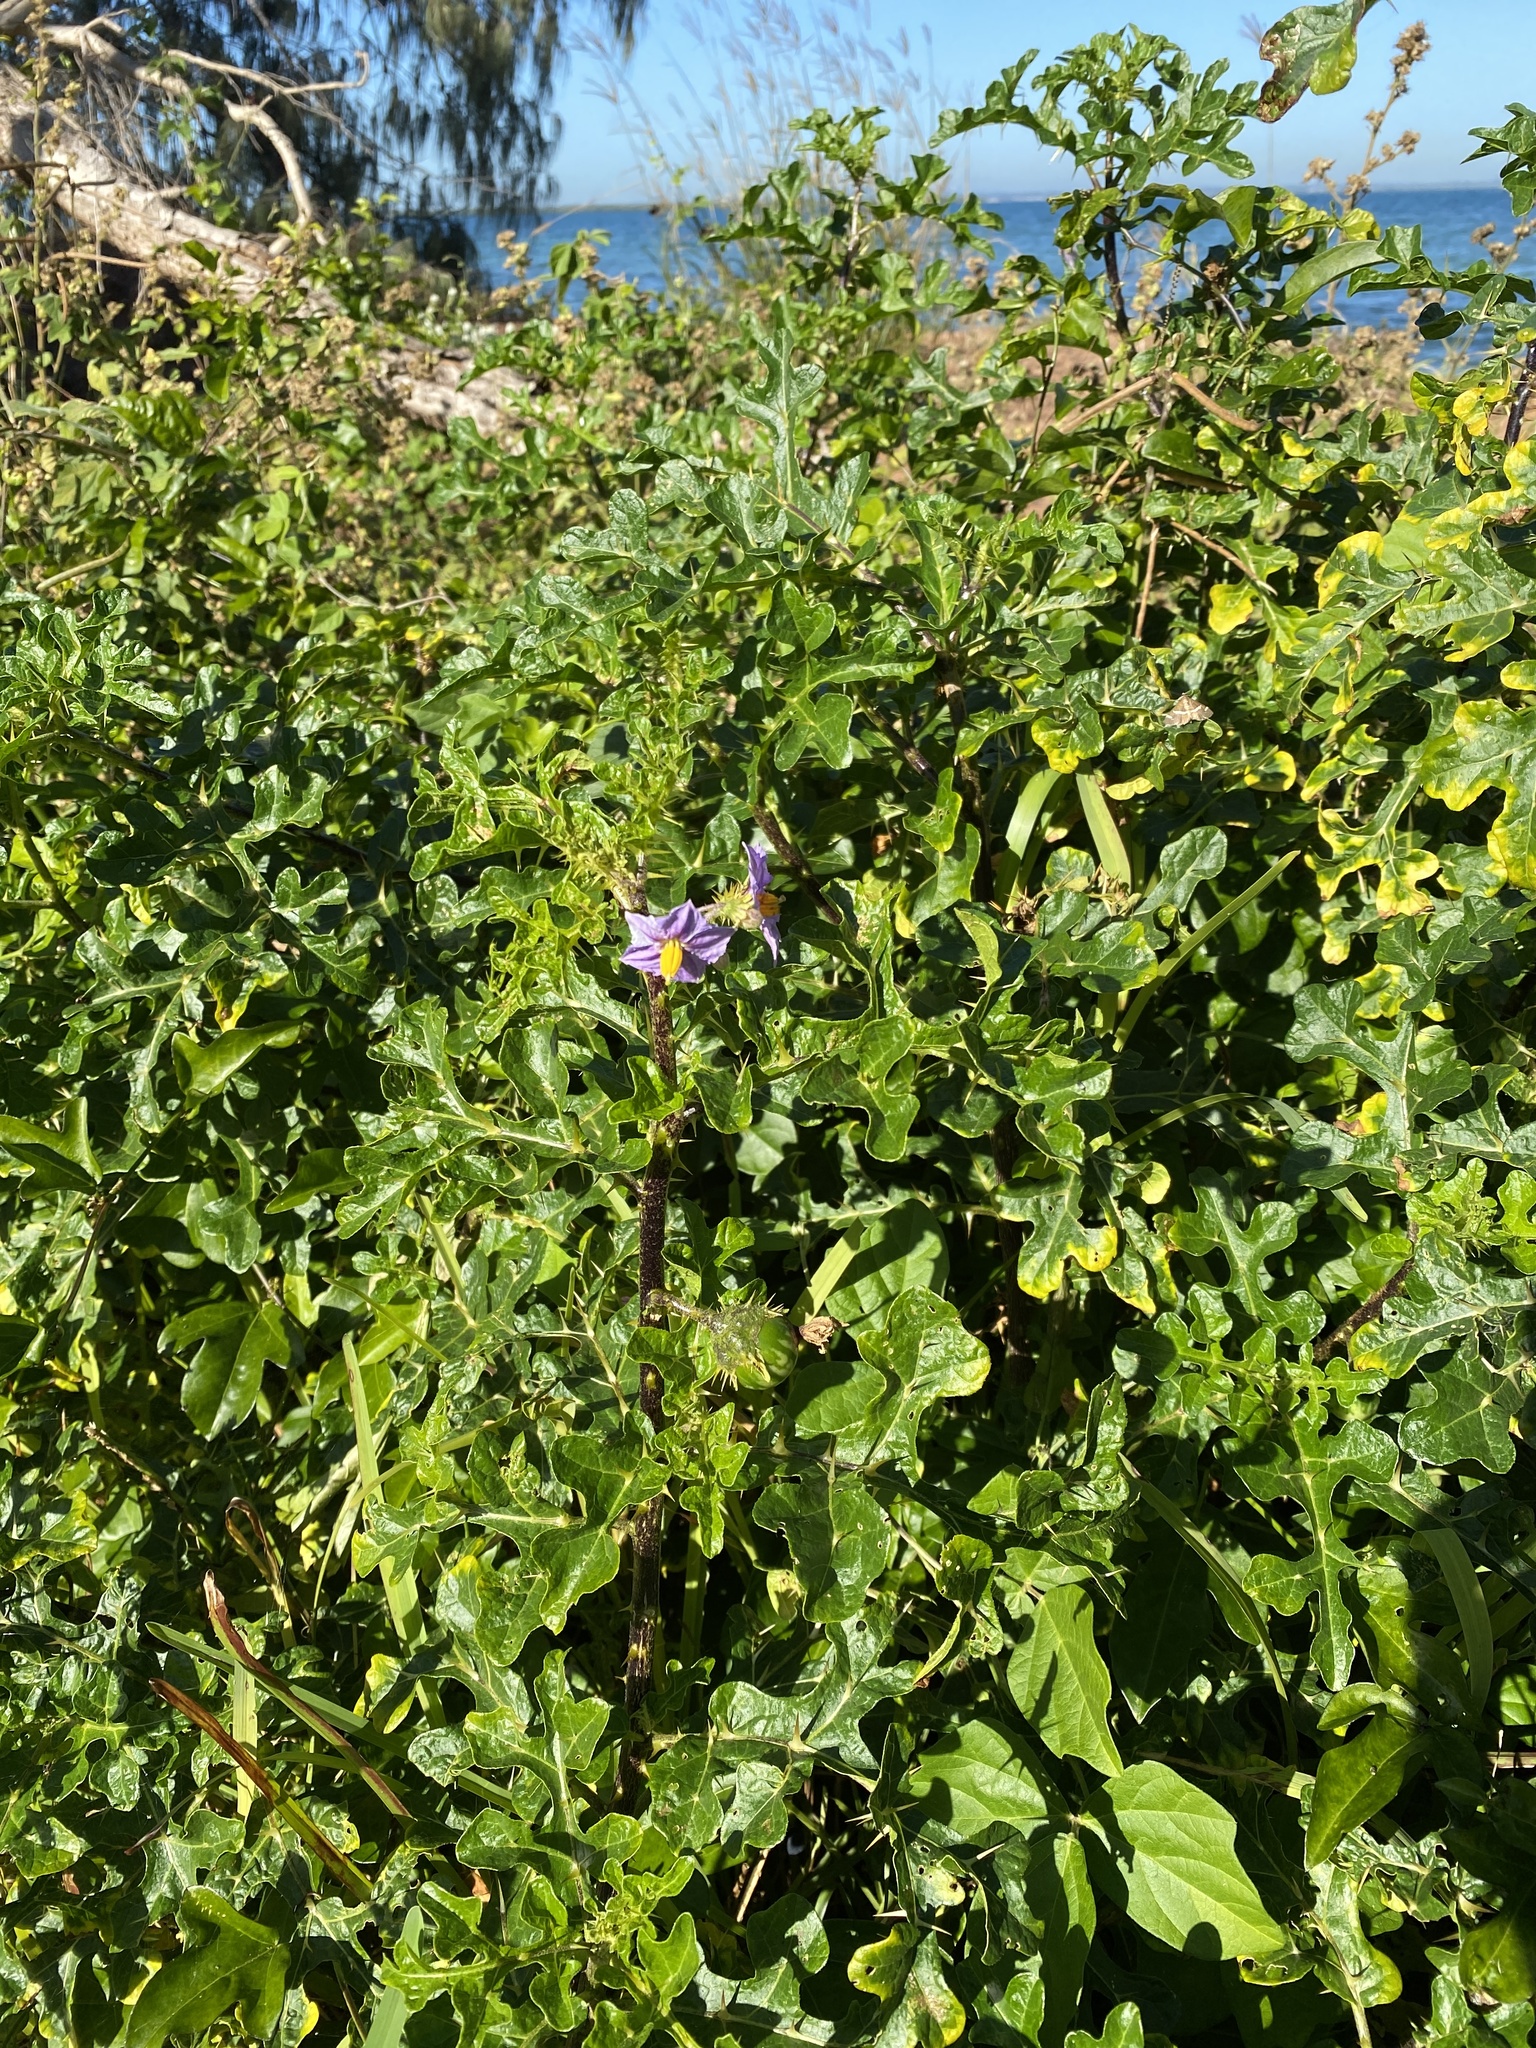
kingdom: Plantae
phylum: Tracheophyta
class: Magnoliopsida
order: Solanales
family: Solanaceae
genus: Solanum
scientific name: Solanum linnaeanum
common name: Nightshade
